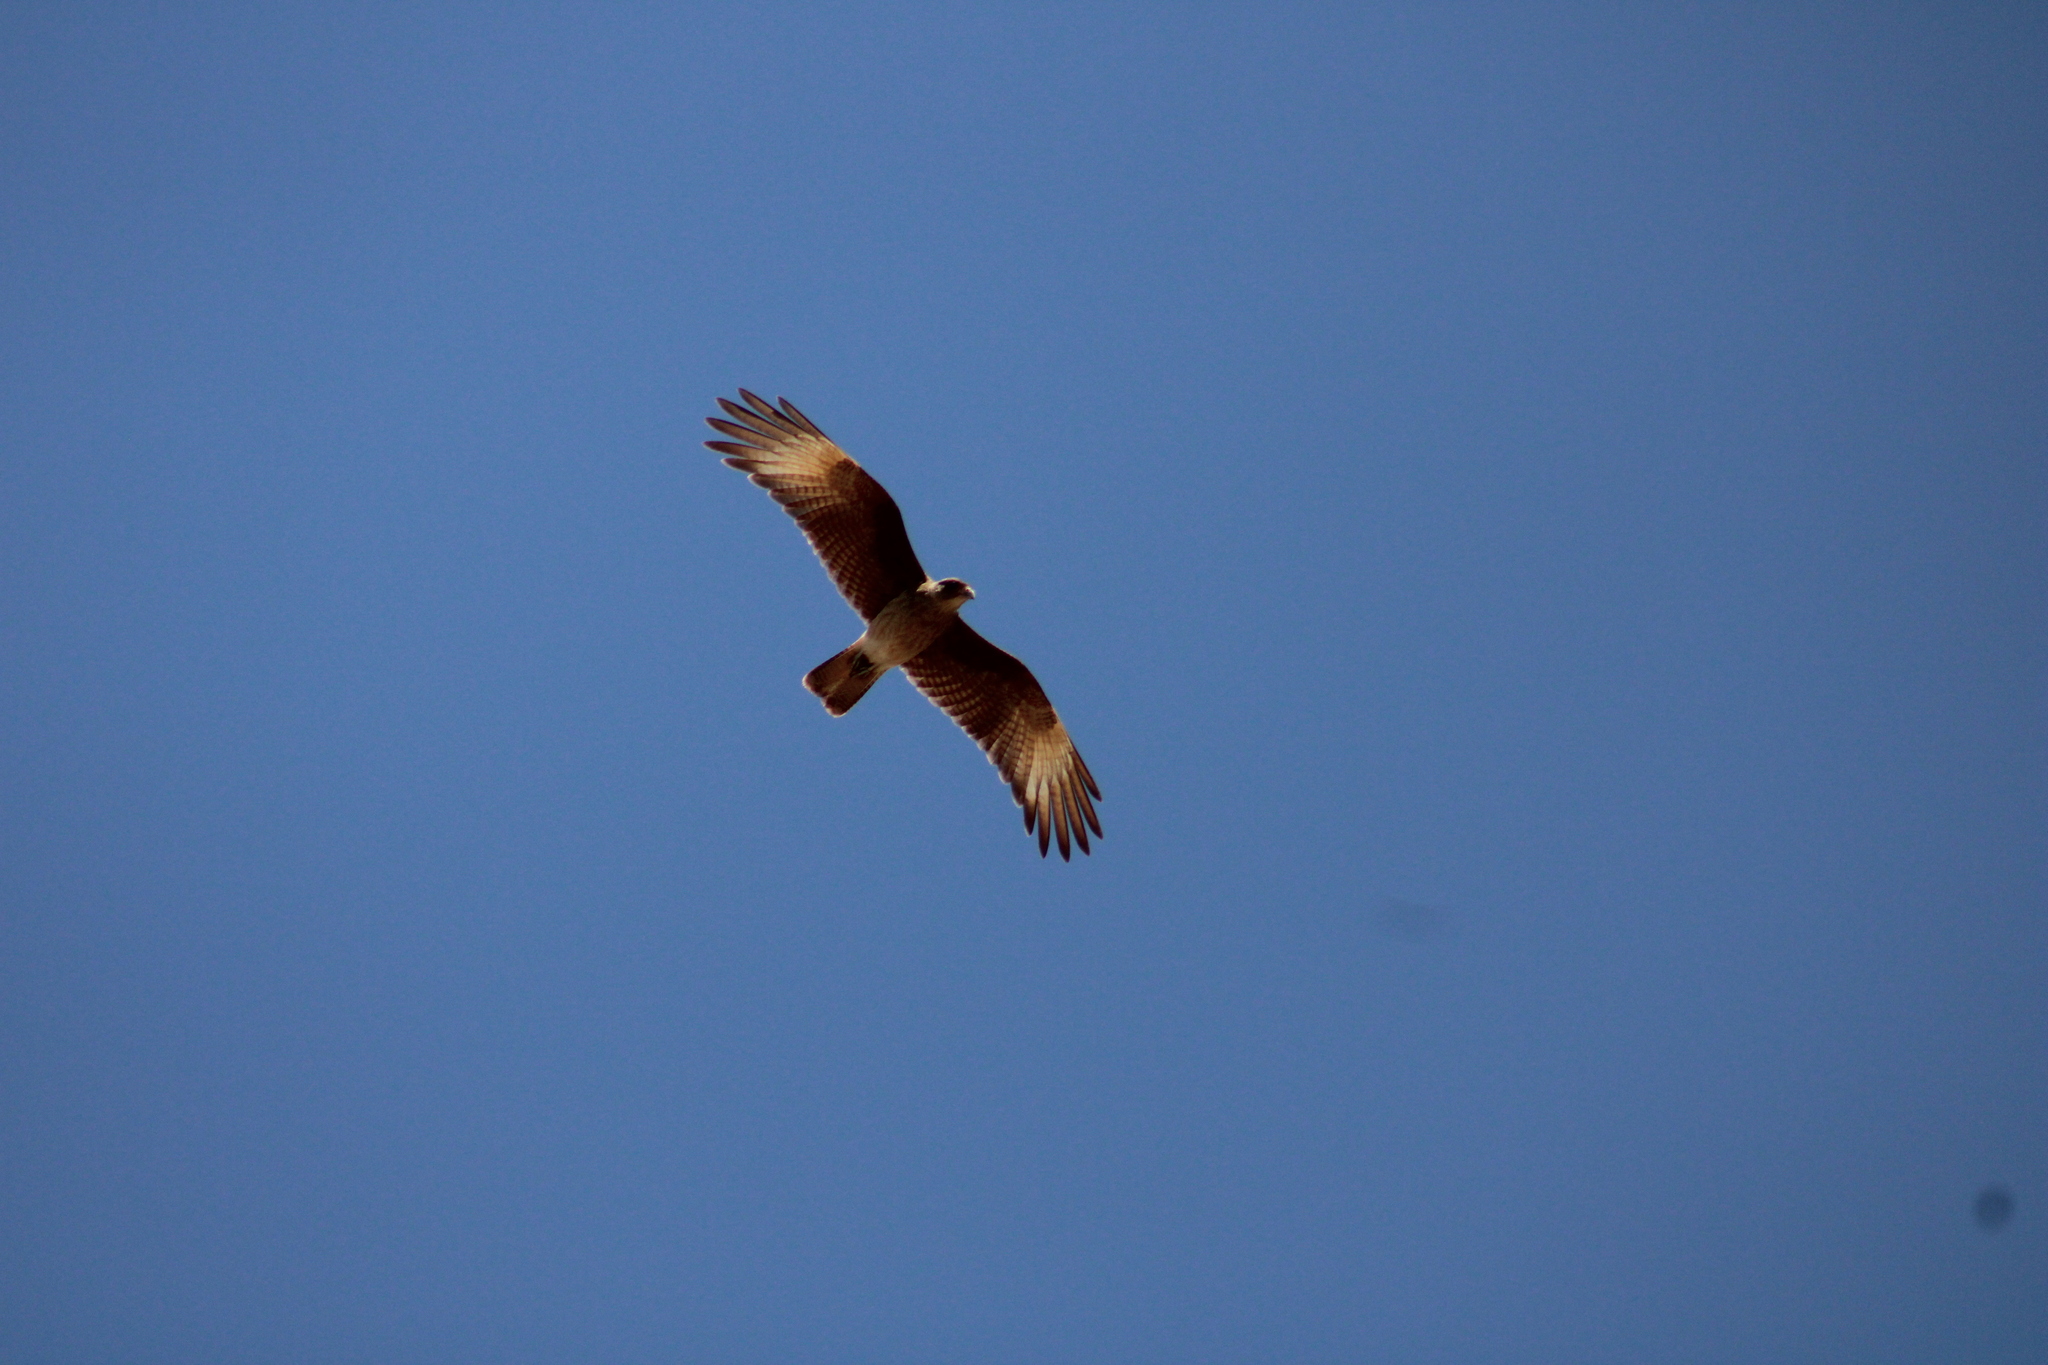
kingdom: Animalia
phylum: Chordata
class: Aves
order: Falconiformes
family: Falconidae
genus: Daptrius
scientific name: Daptrius
